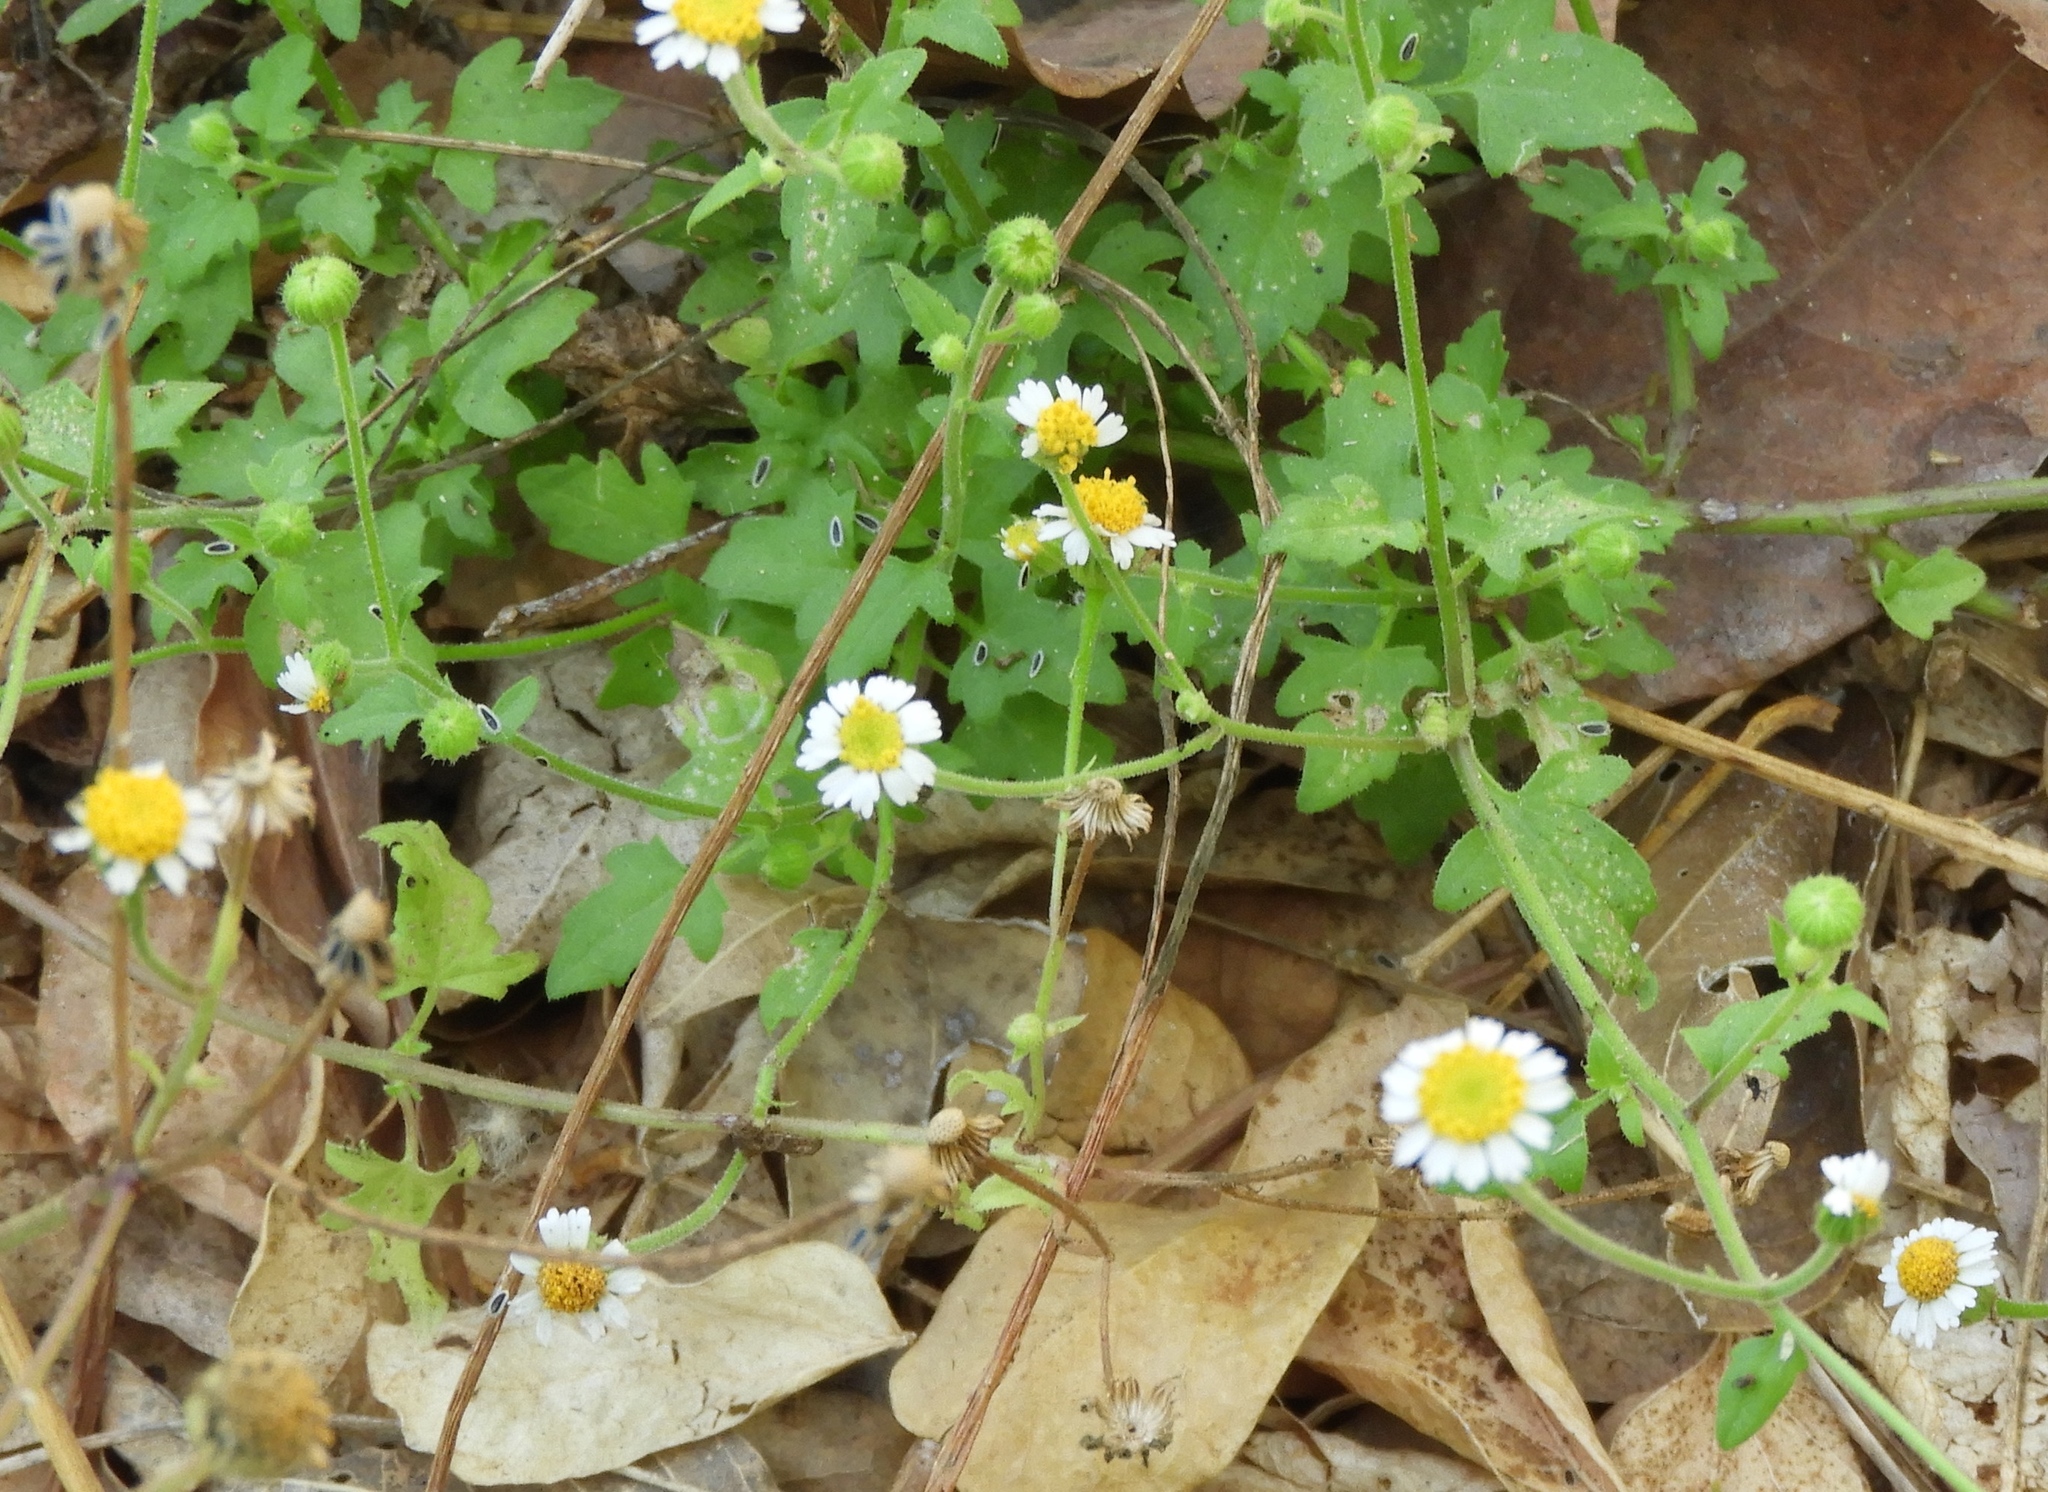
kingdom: Plantae
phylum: Tracheophyta
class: Magnoliopsida
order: Asterales
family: Asteraceae
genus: Galinsogeopsis
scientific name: Galinsogeopsis spilanthoides
